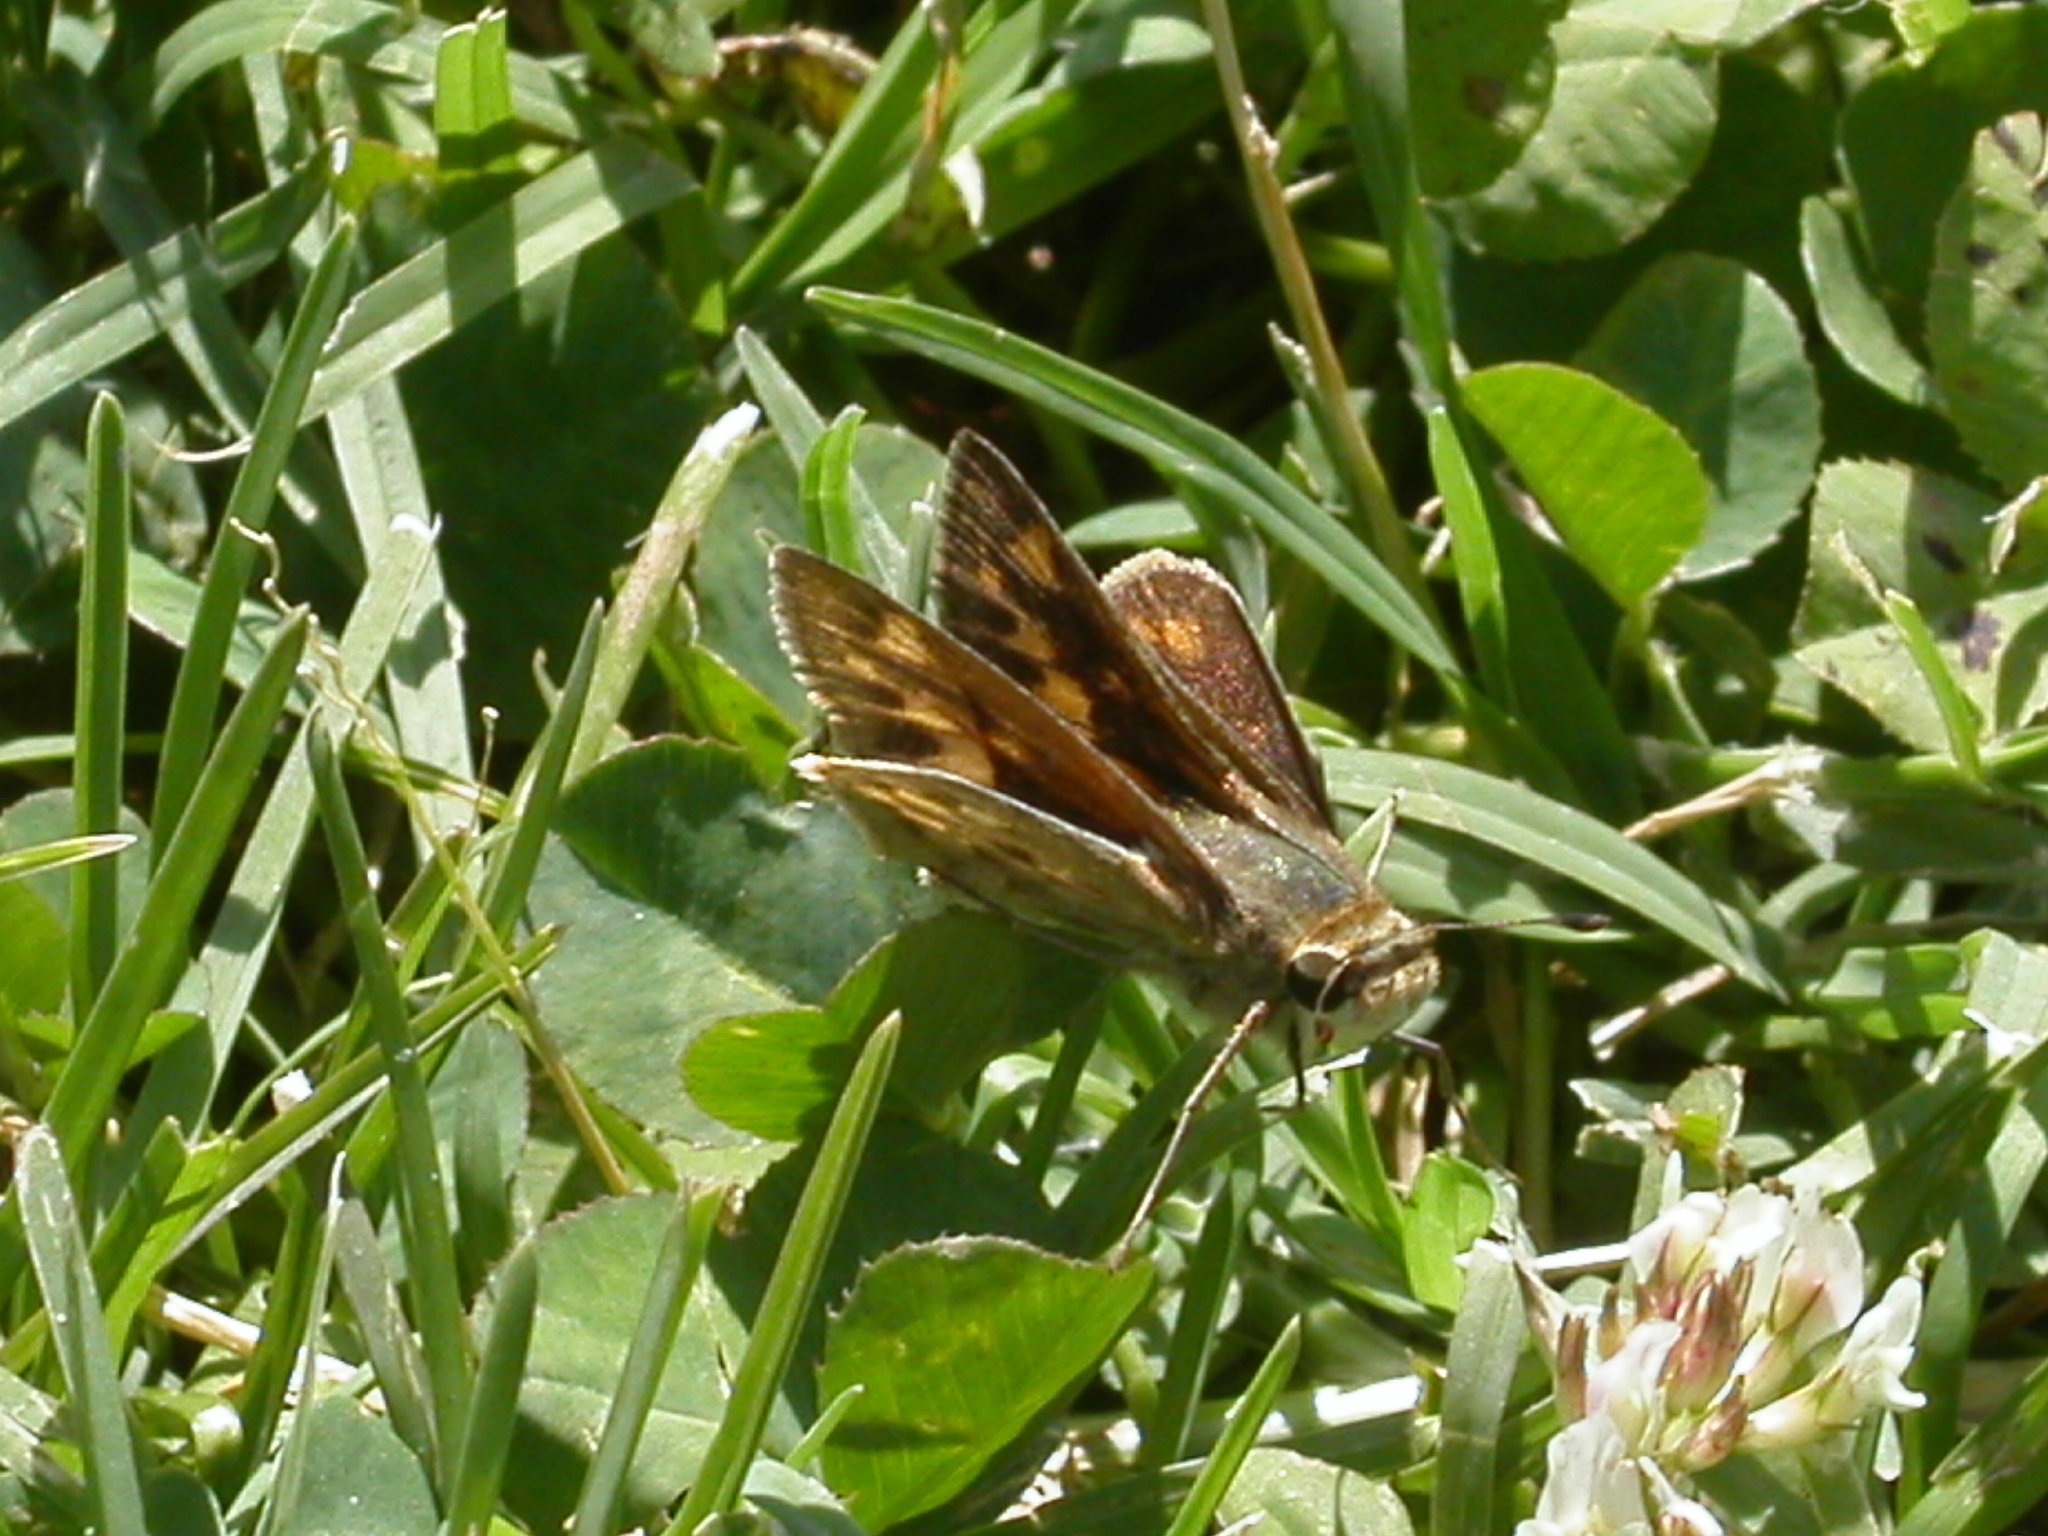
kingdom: Animalia
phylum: Arthropoda
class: Insecta
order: Lepidoptera
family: Hesperiidae
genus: Hylephila
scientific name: Hylephila phyleus
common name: Fiery skipper
